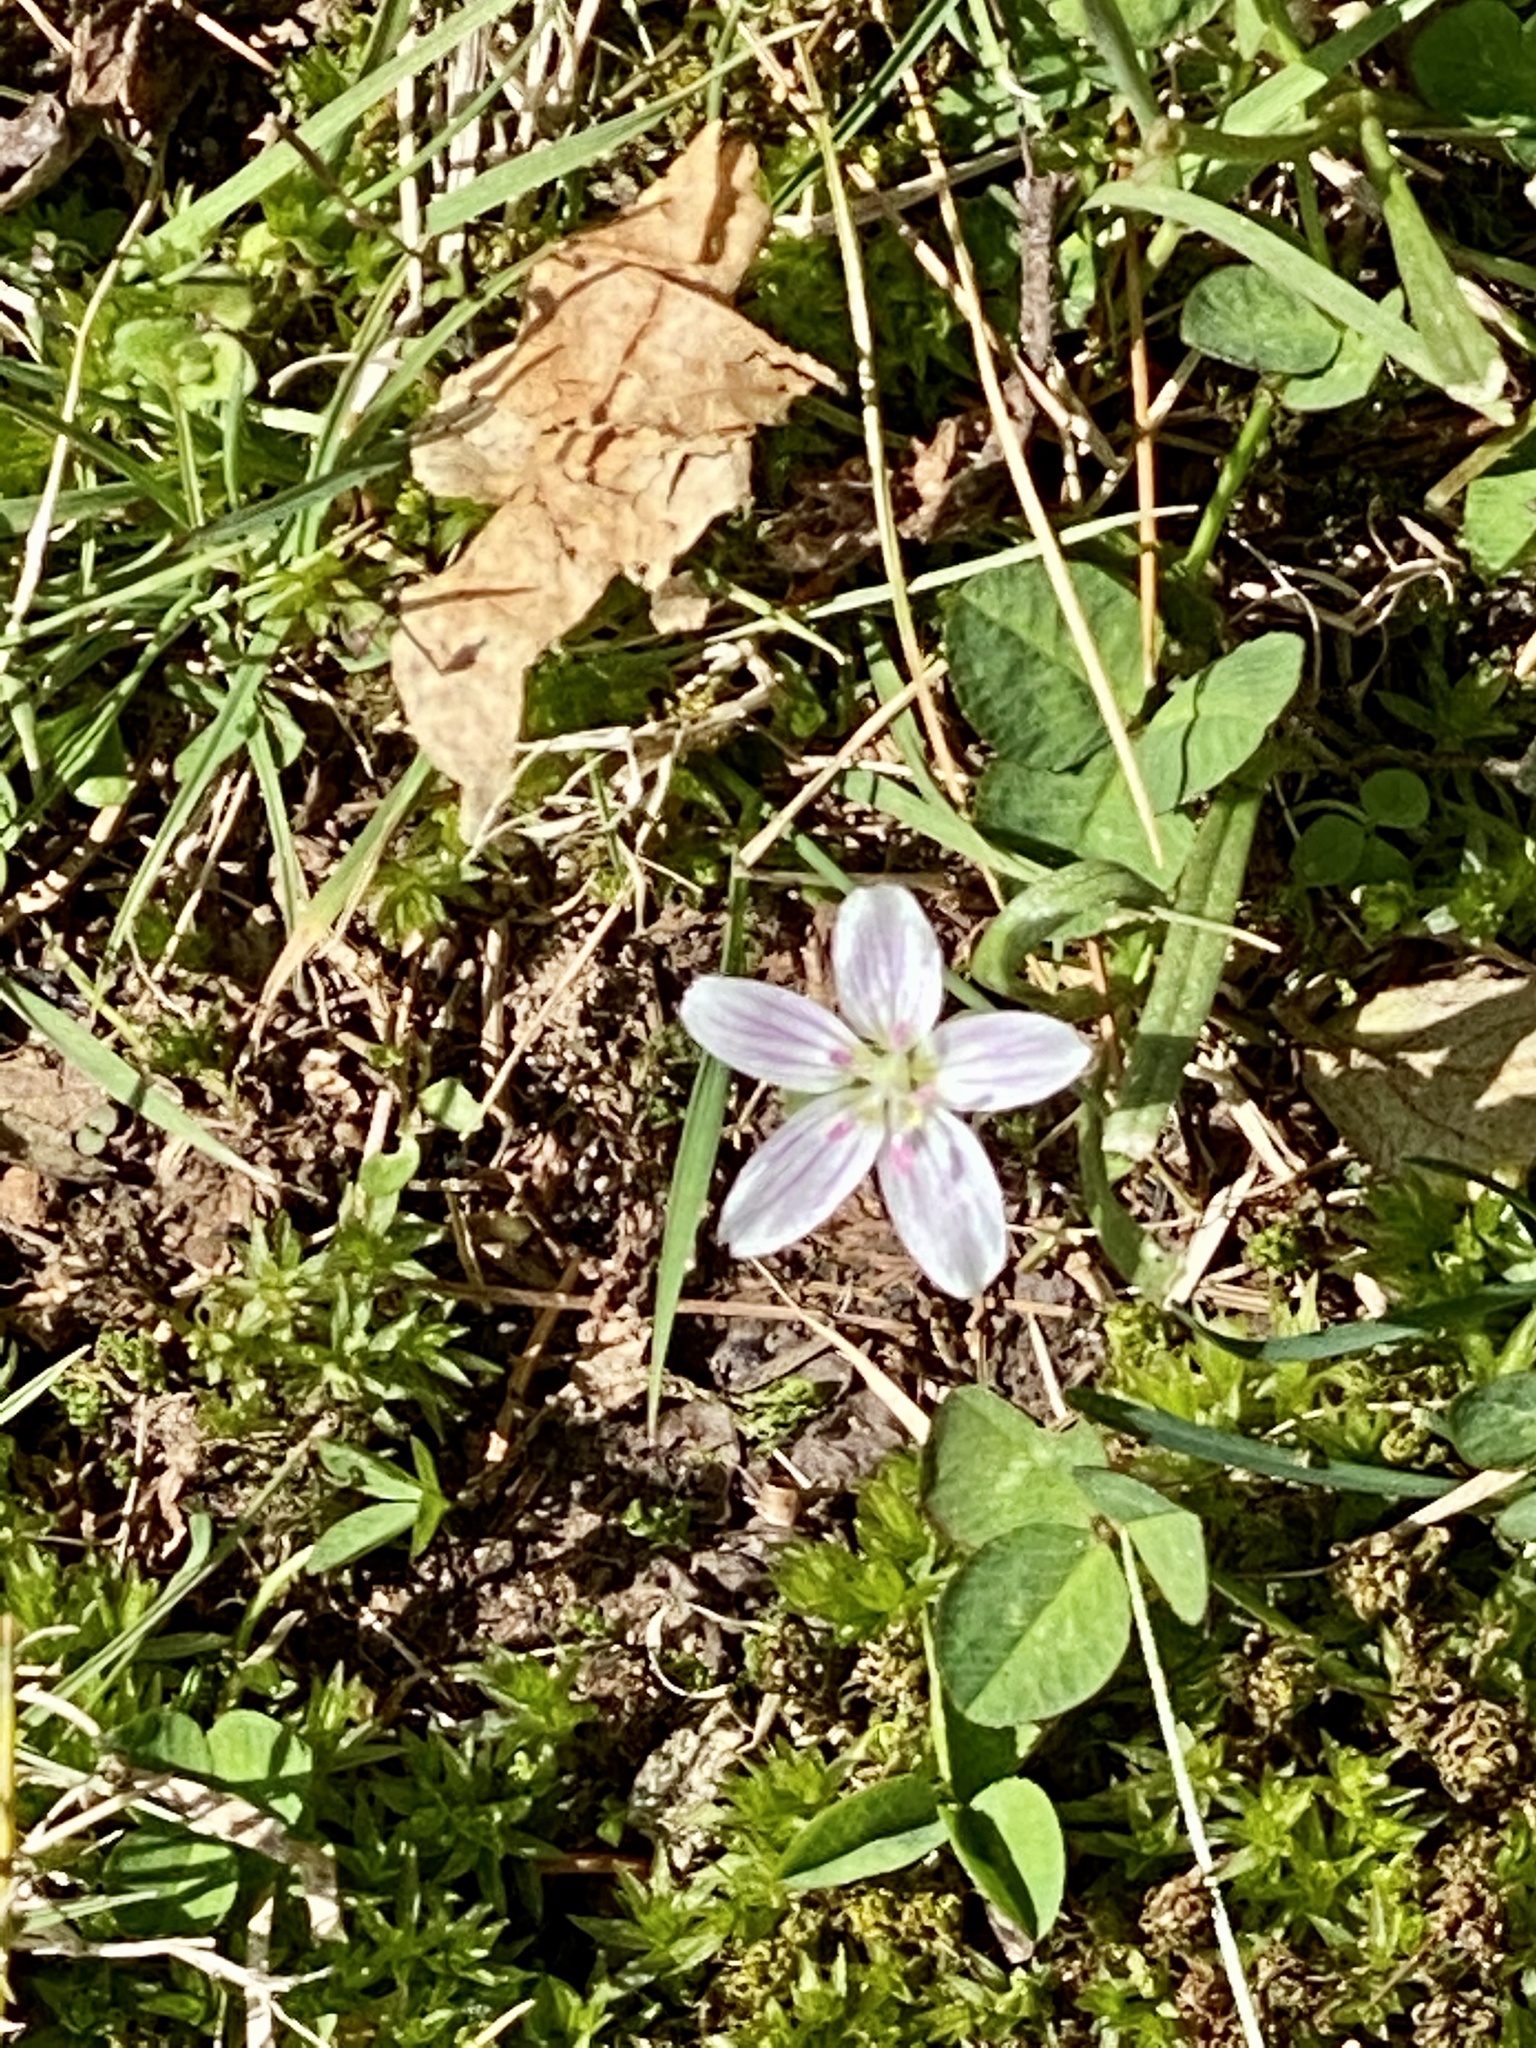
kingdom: Plantae
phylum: Tracheophyta
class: Magnoliopsida
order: Caryophyllales
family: Montiaceae
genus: Claytonia
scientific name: Claytonia virginica
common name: Virginia springbeauty
